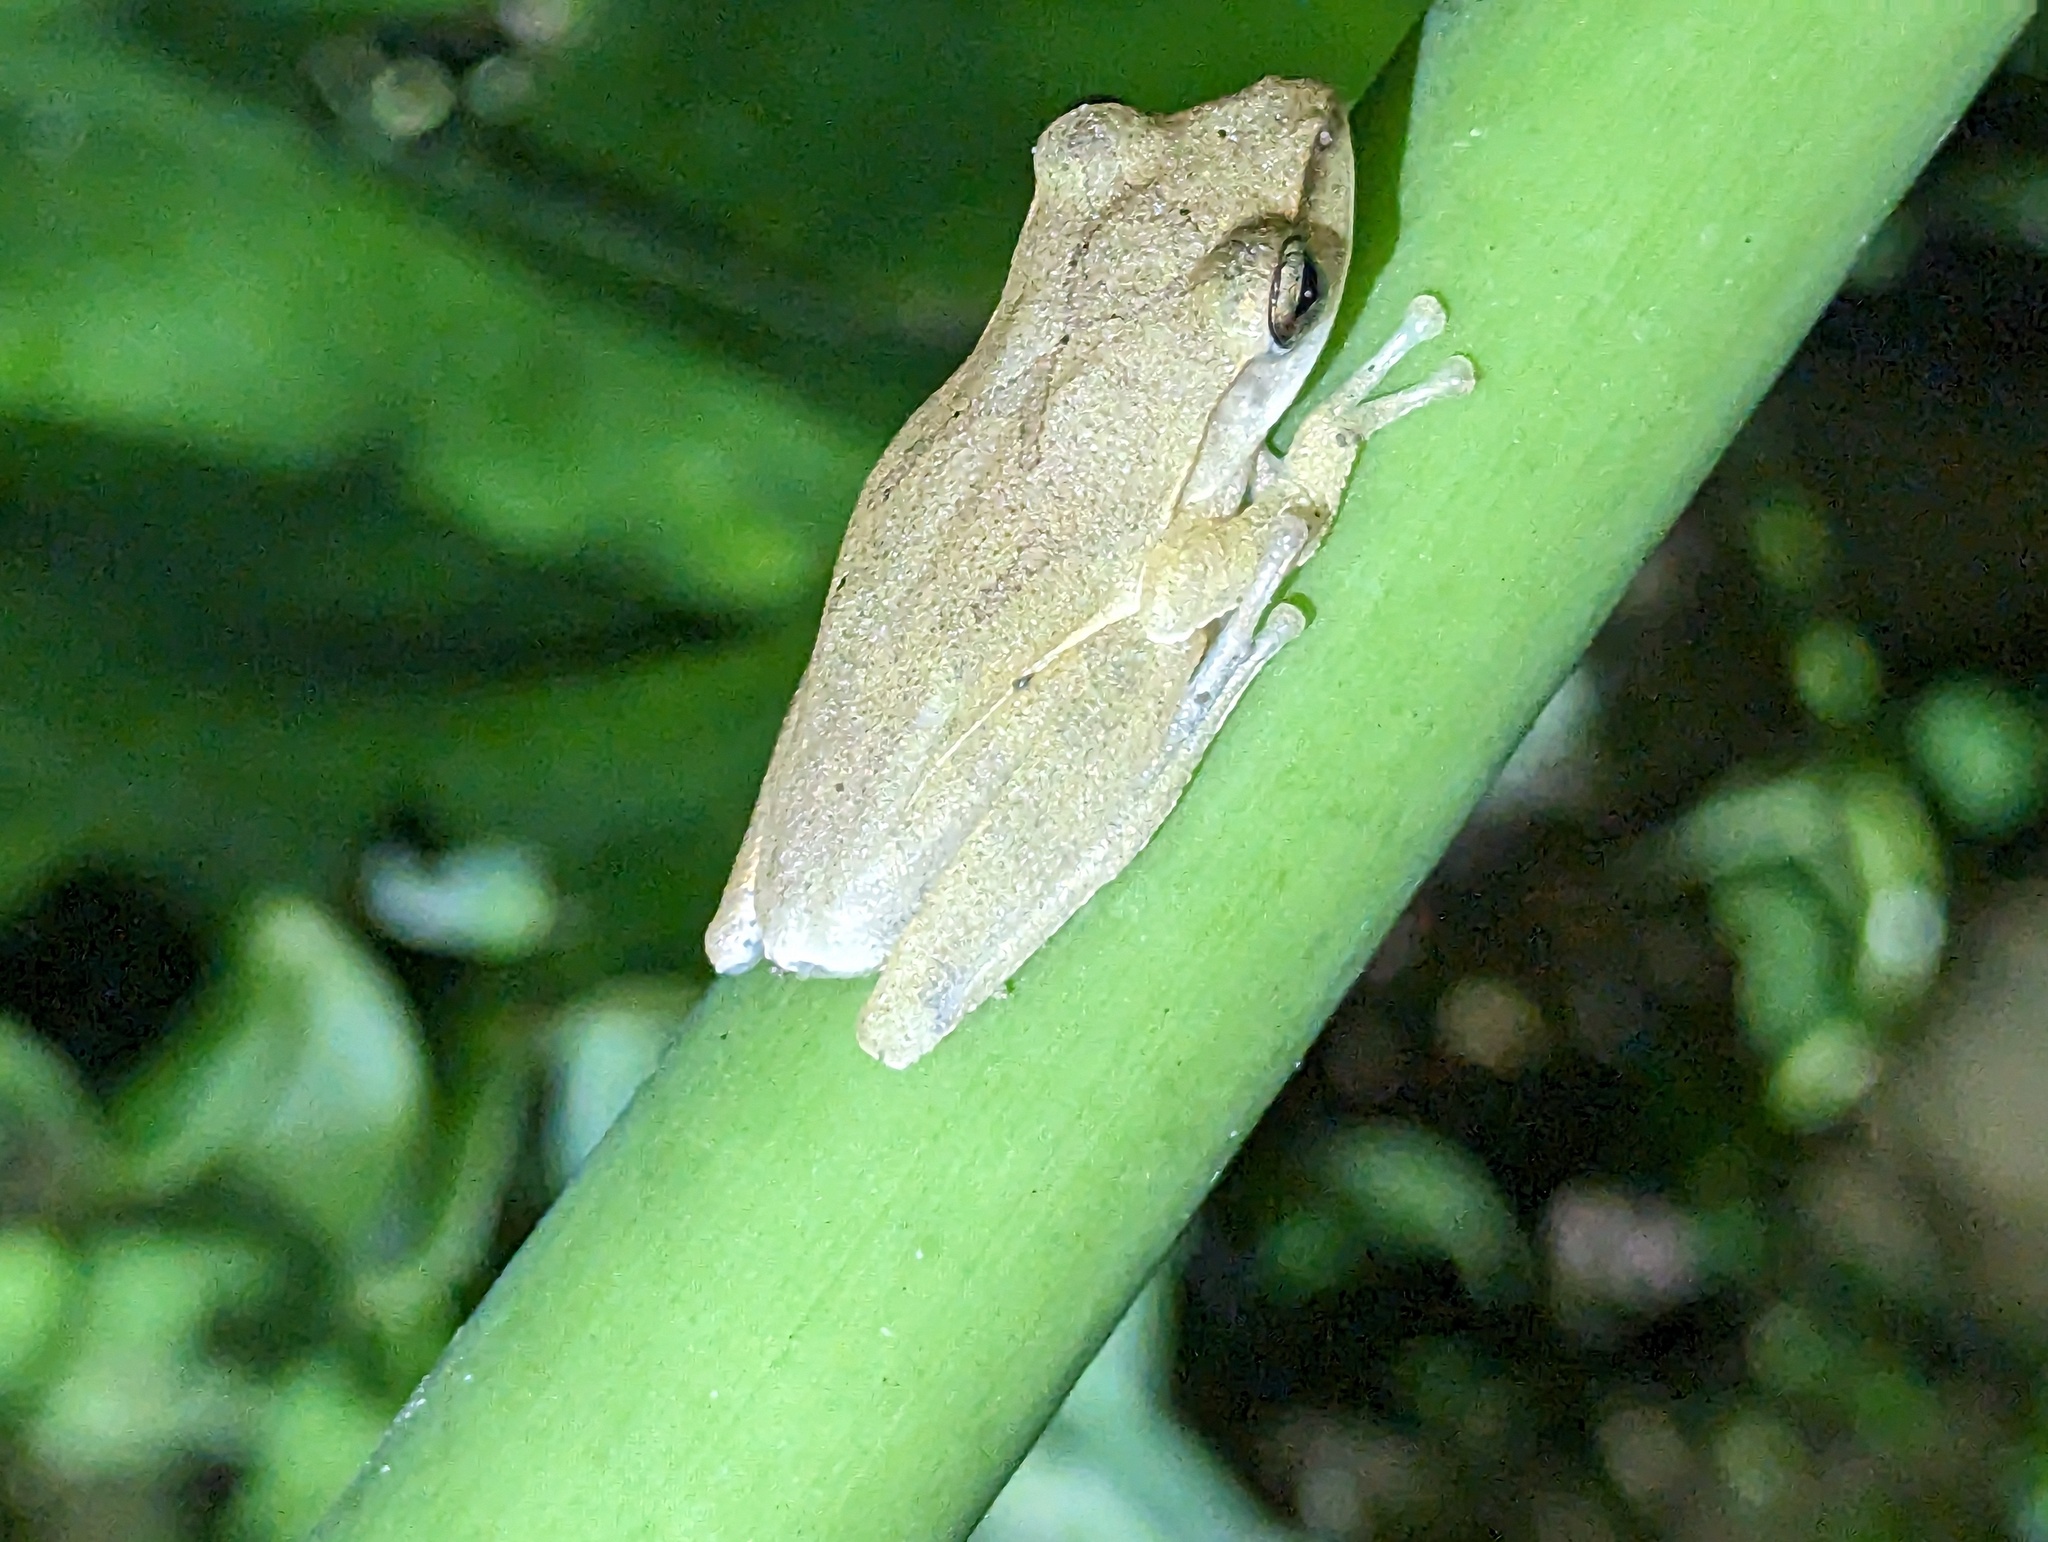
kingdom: Animalia
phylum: Chordata
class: Amphibia
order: Anura
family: Rhacophoridae
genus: Polypedates
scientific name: Polypedates megacephalus
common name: Hong kong whipping frog
